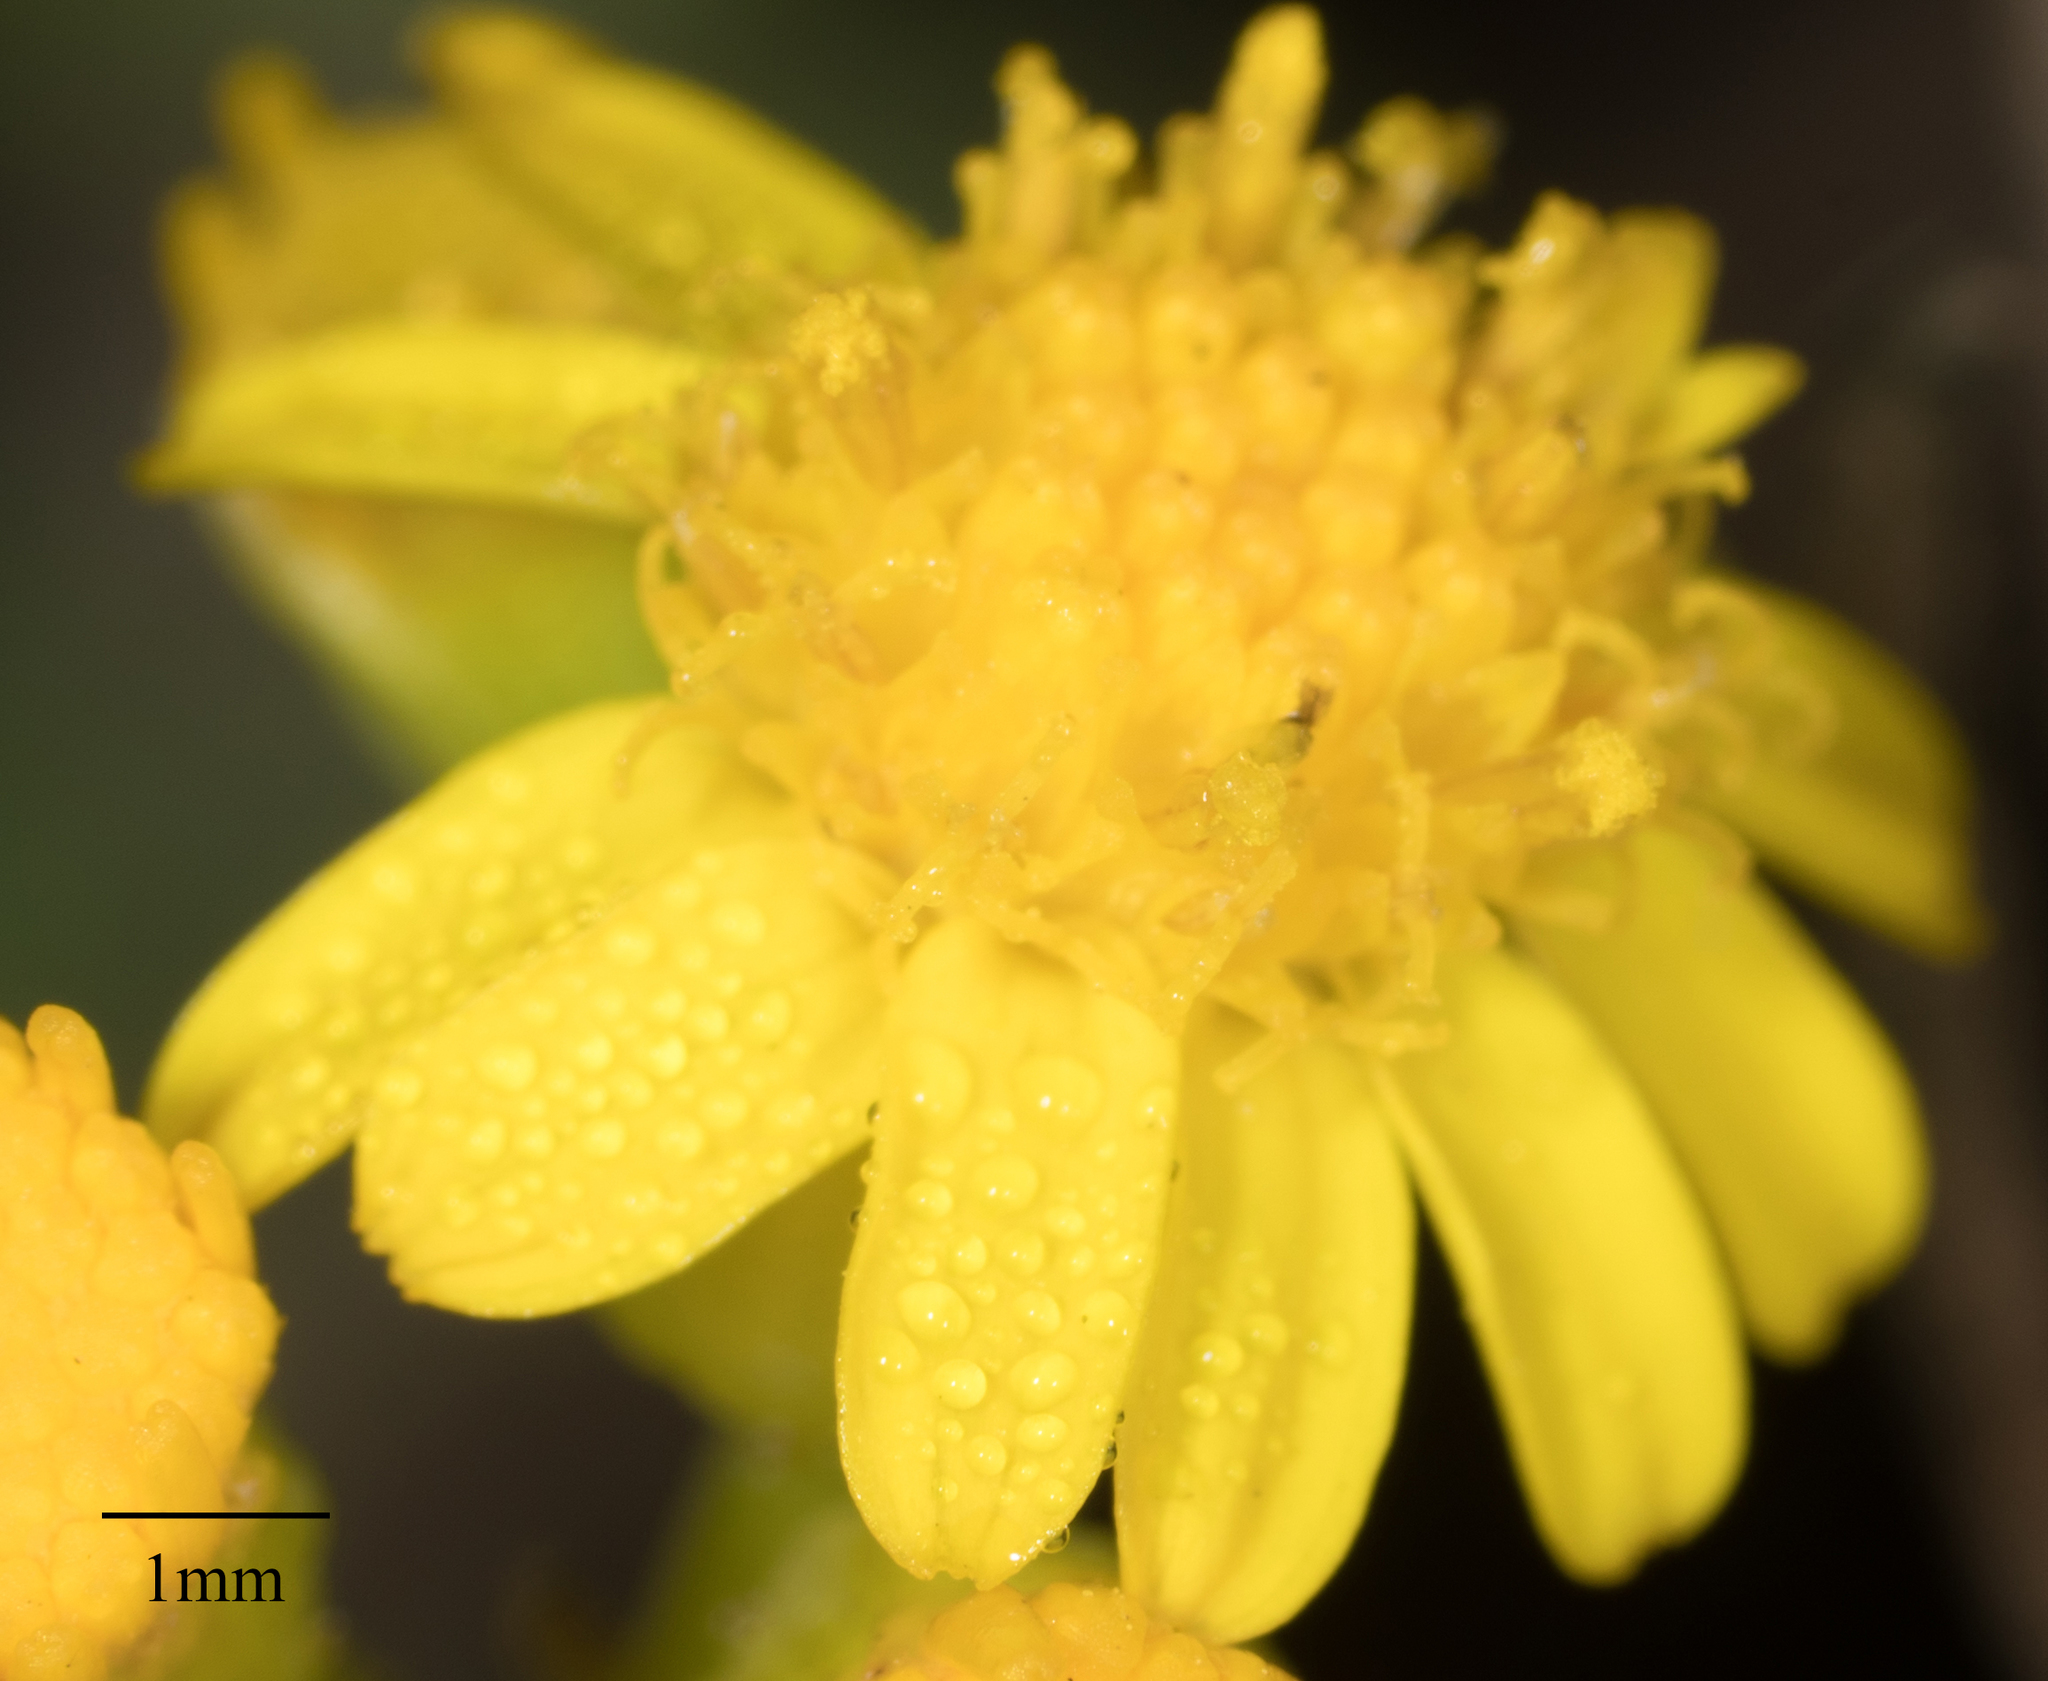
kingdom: Plantae
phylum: Tracheophyta
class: Magnoliopsida
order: Asterales
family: Asteraceae
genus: Senecio
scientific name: Senecio linearifolius
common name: Fireweed groundsel
